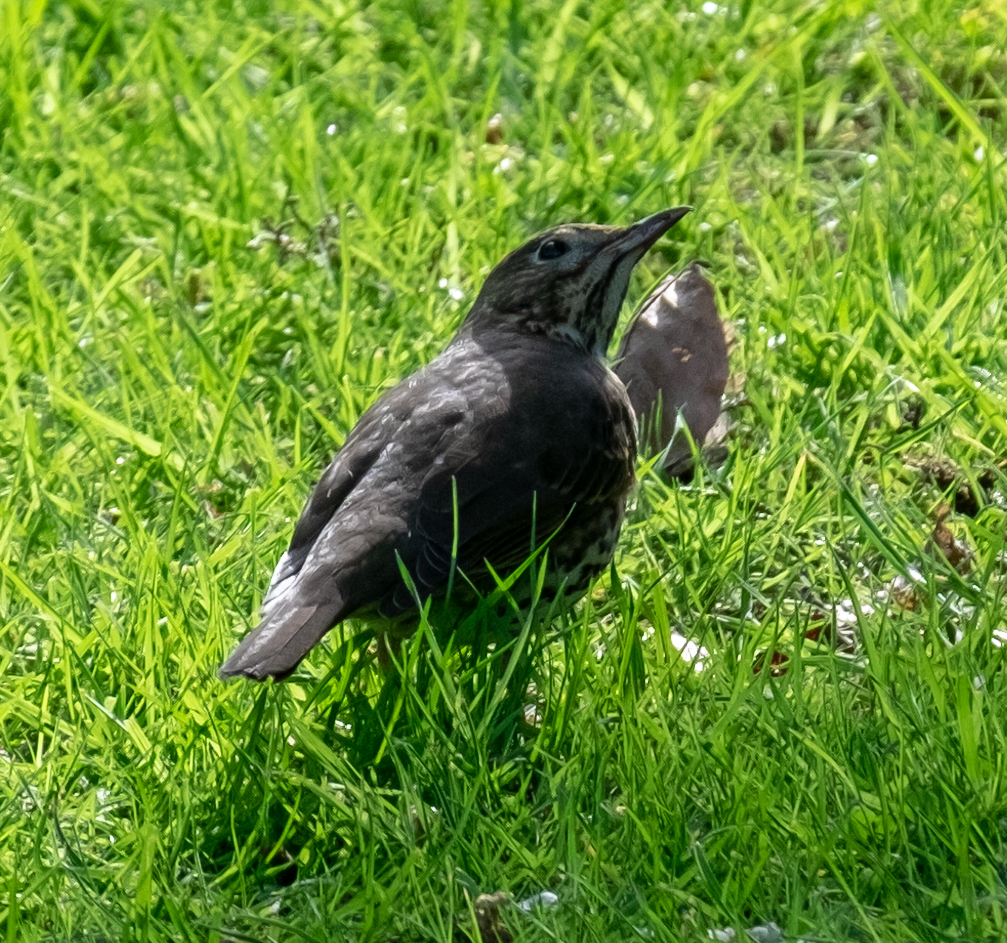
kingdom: Animalia
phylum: Chordata
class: Aves
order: Passeriformes
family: Turdidae
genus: Turdus
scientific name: Turdus philomelos
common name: Song thrush
